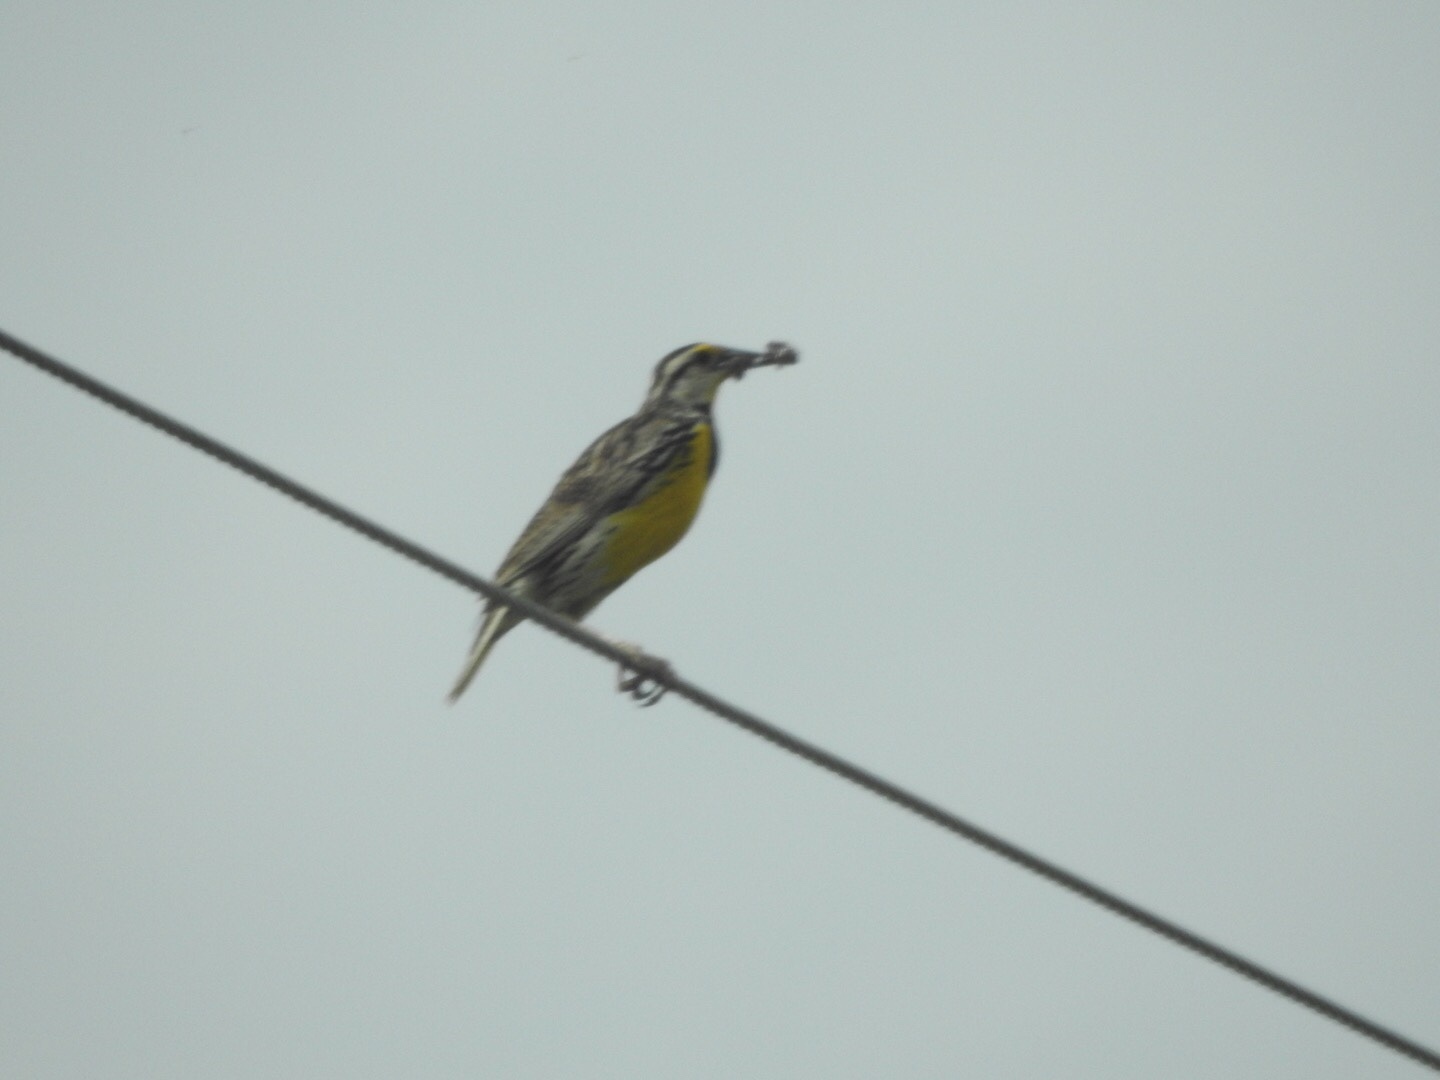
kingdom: Animalia
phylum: Chordata
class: Aves
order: Passeriformes
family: Icteridae
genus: Sturnella
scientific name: Sturnella magna
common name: Eastern meadowlark
